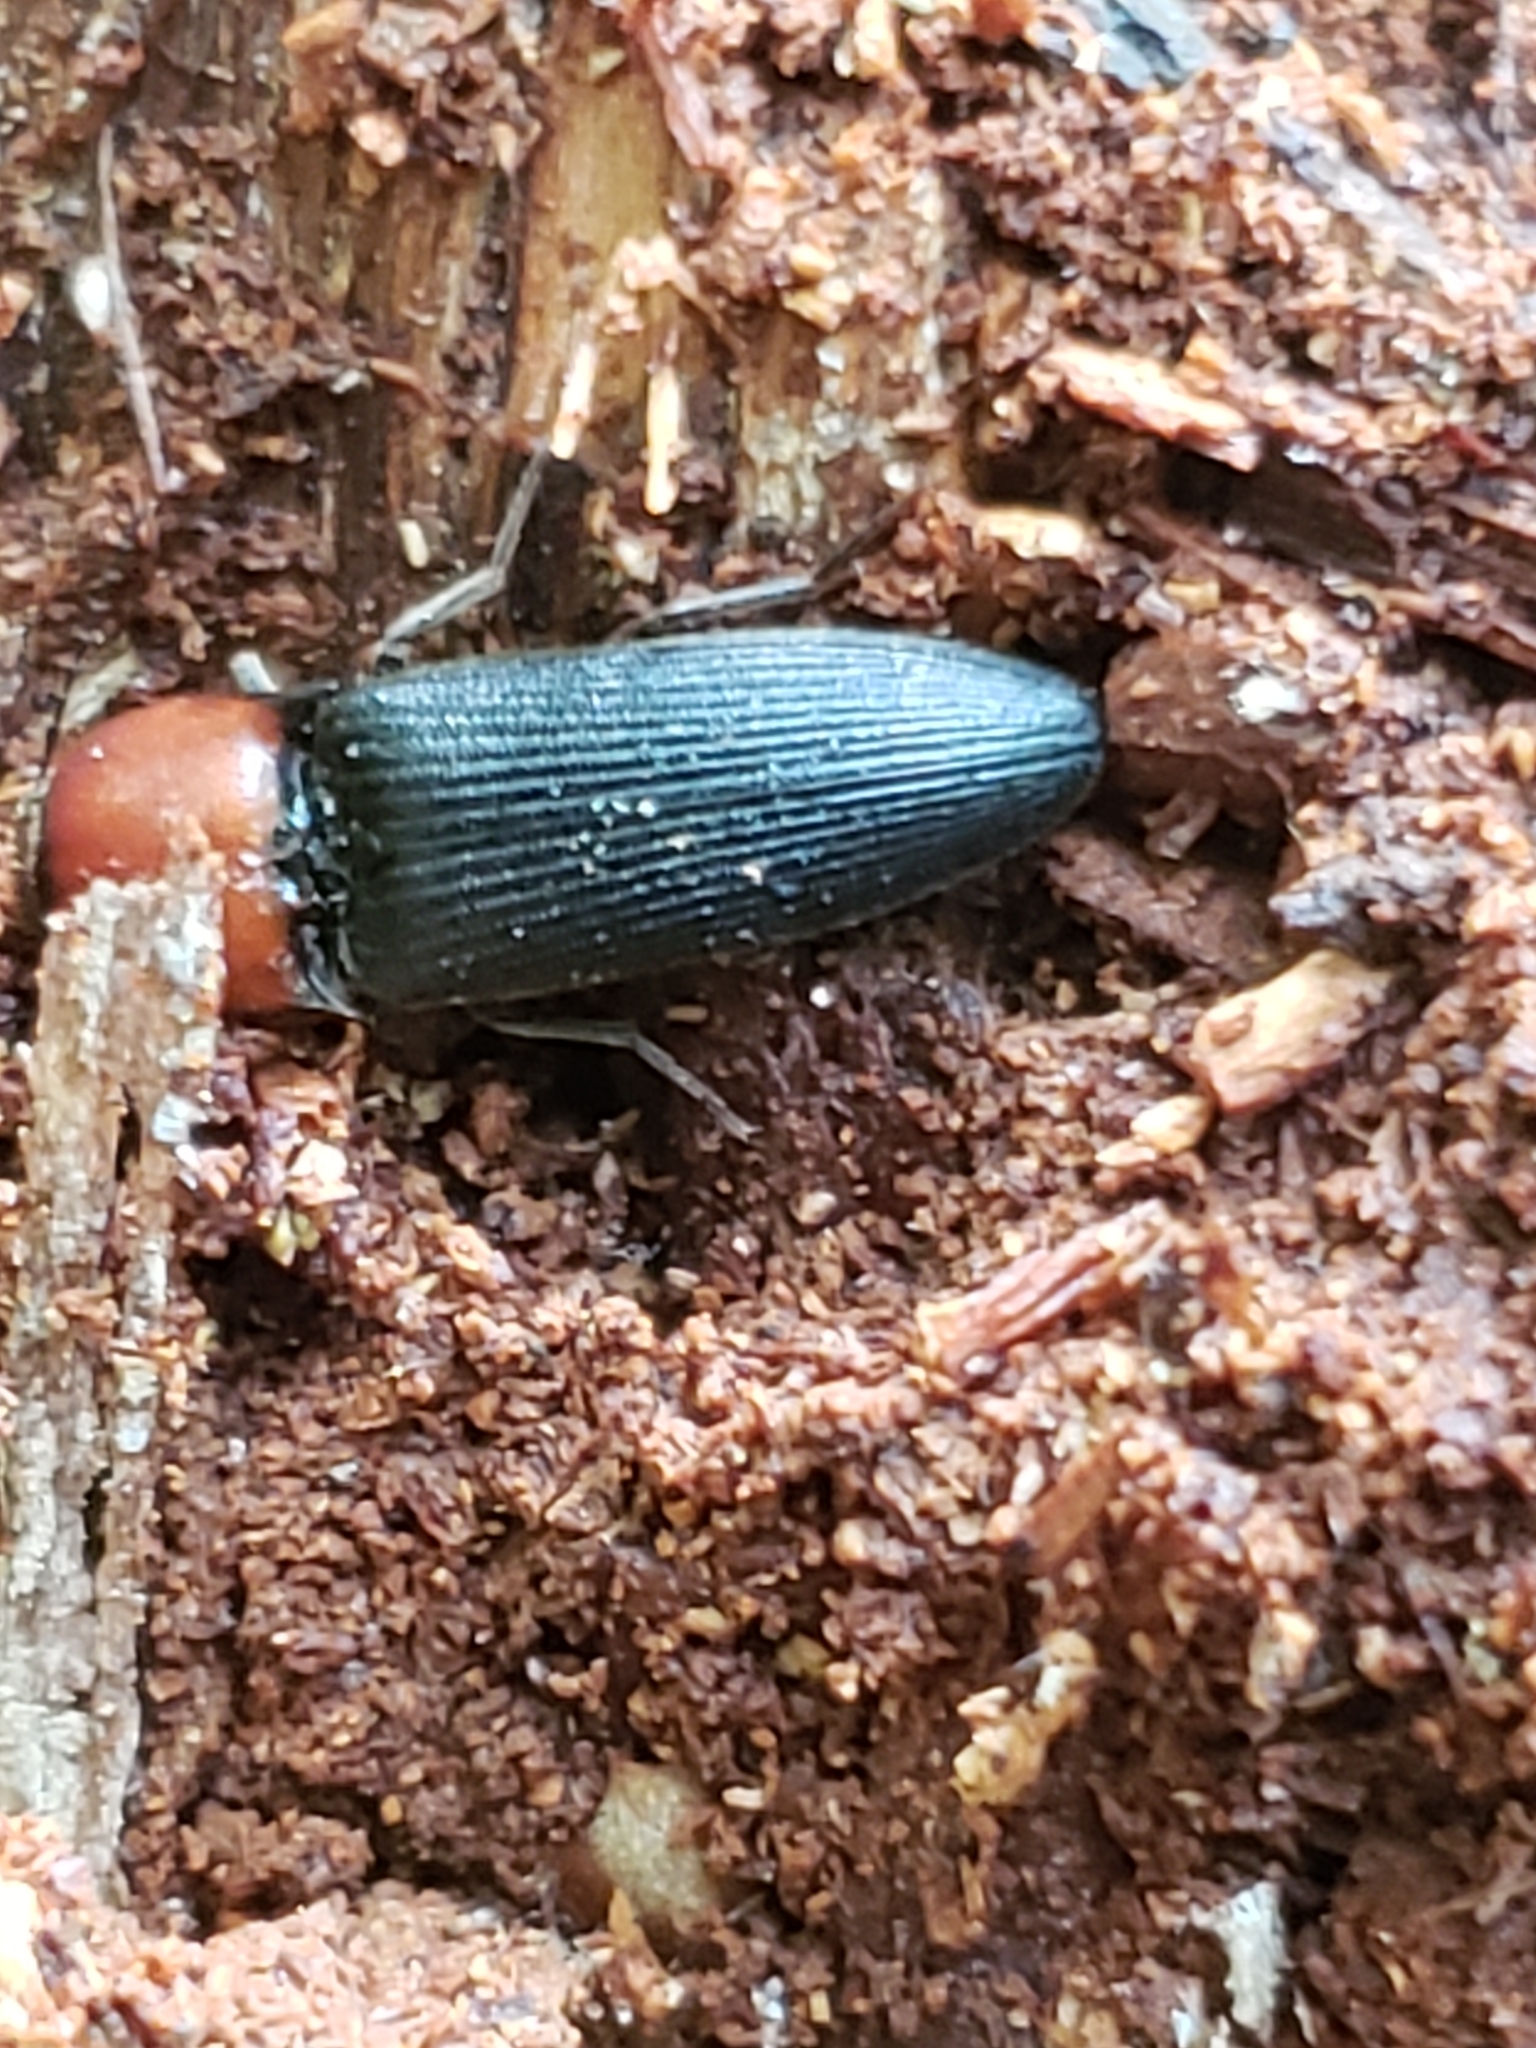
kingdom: Animalia
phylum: Arthropoda
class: Insecta
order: Coleoptera
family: Elateridae
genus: Ampedus
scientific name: Ampedus rubricollis
